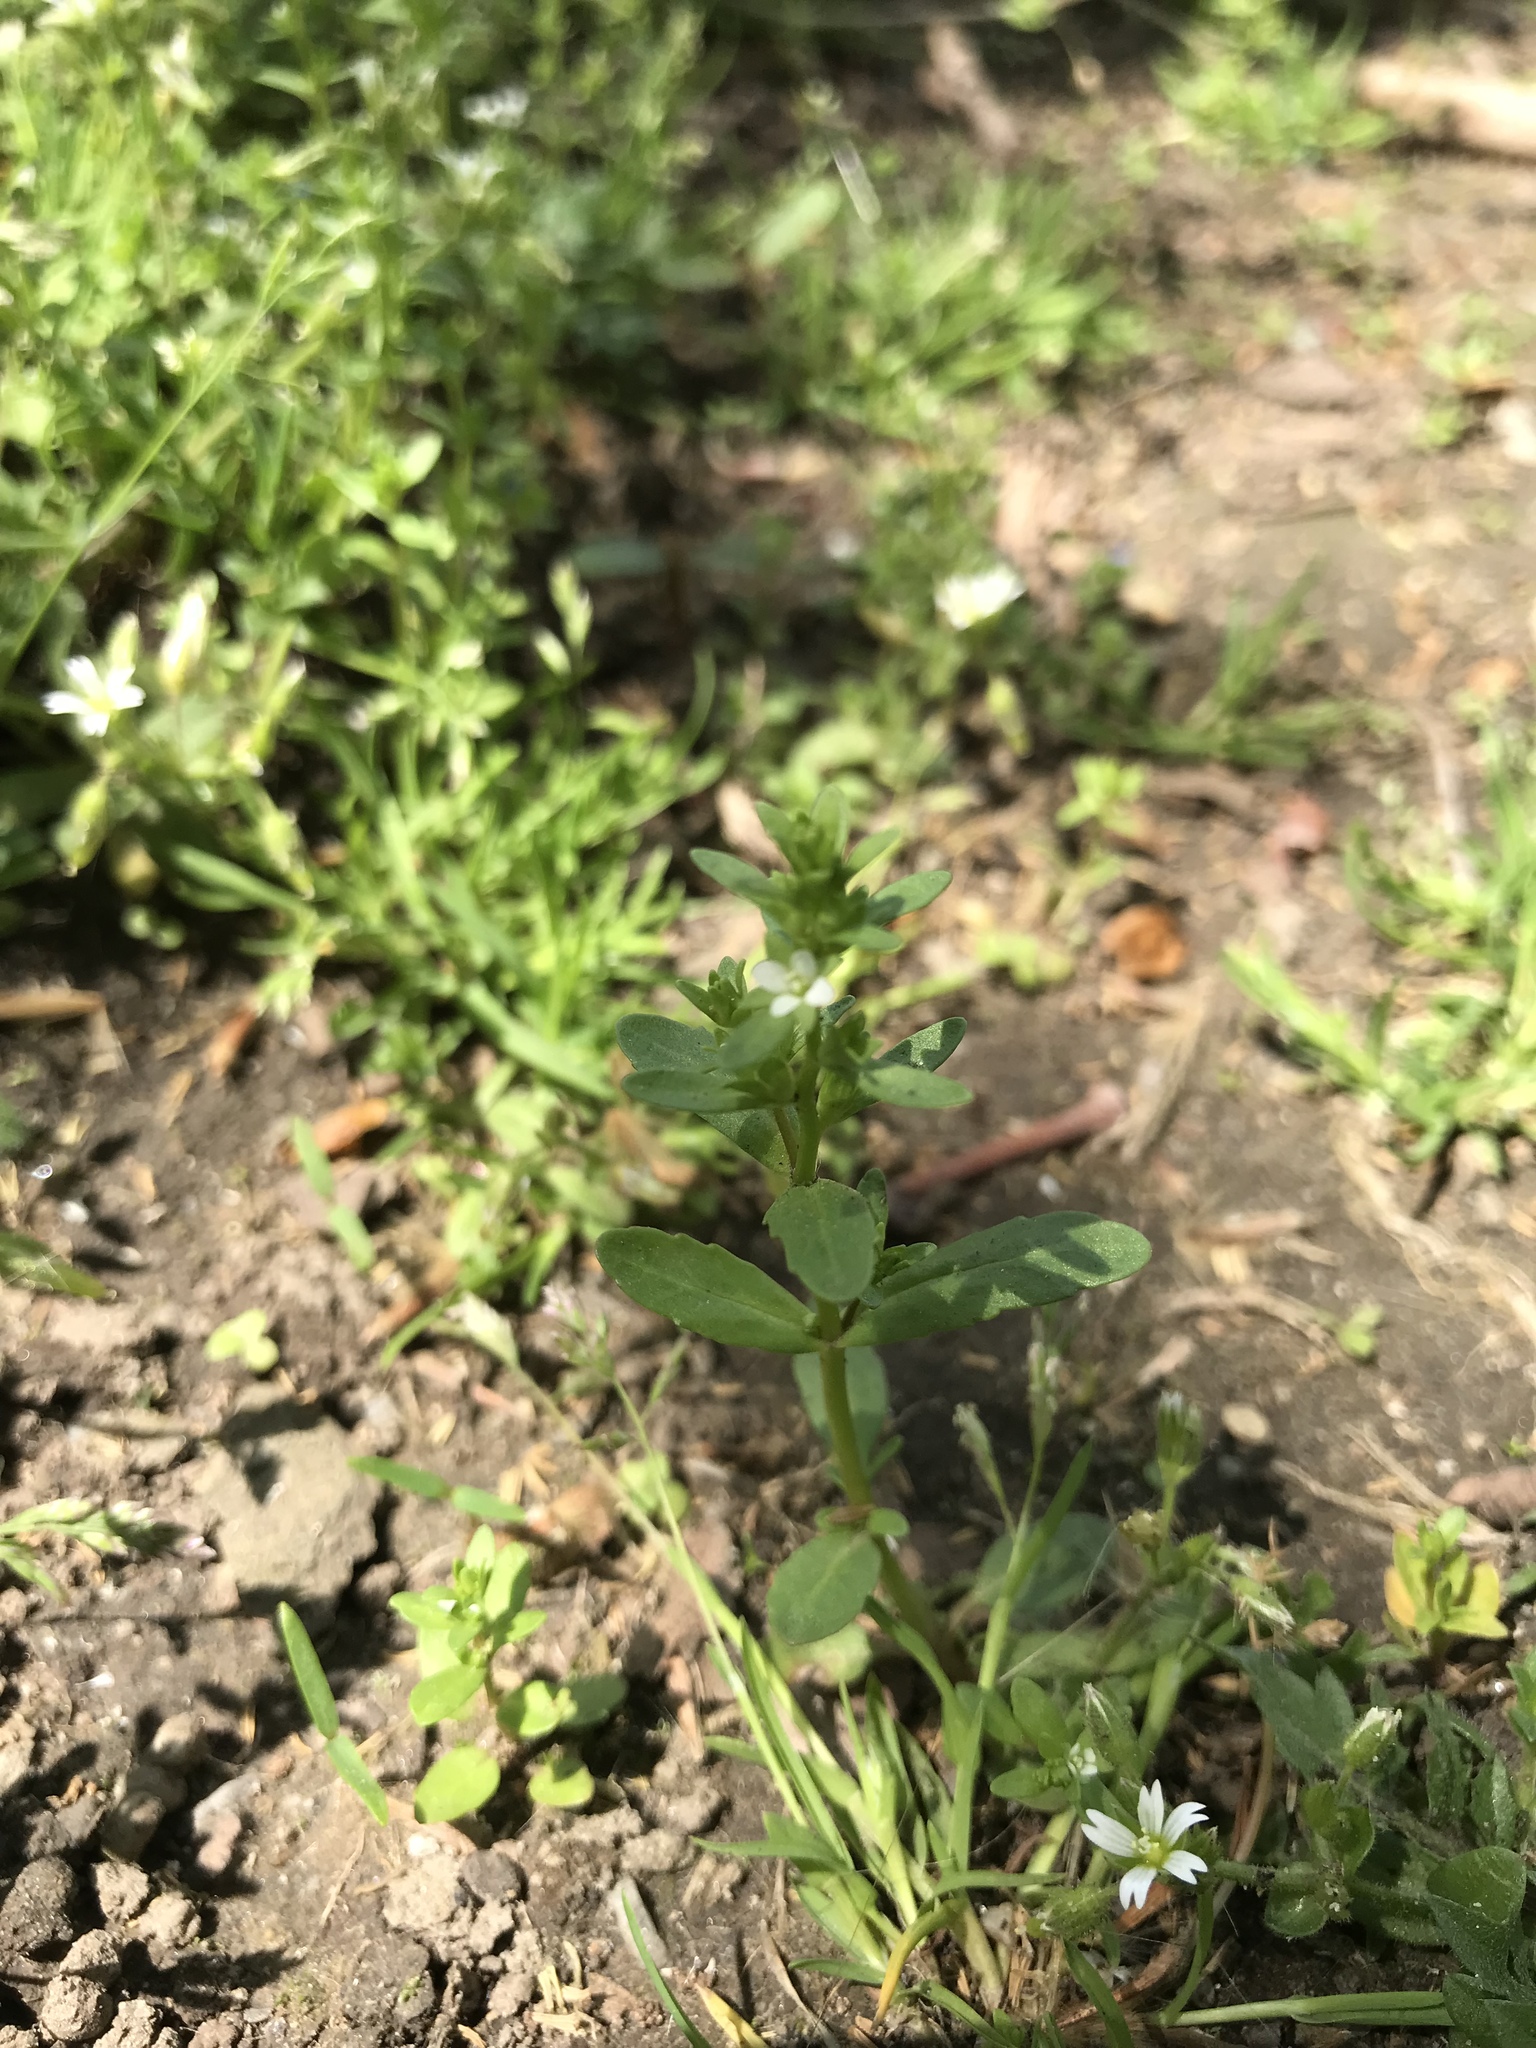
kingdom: Plantae
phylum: Tracheophyta
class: Magnoliopsida
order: Lamiales
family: Plantaginaceae
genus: Veronica
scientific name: Veronica peregrina
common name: Neckweed
